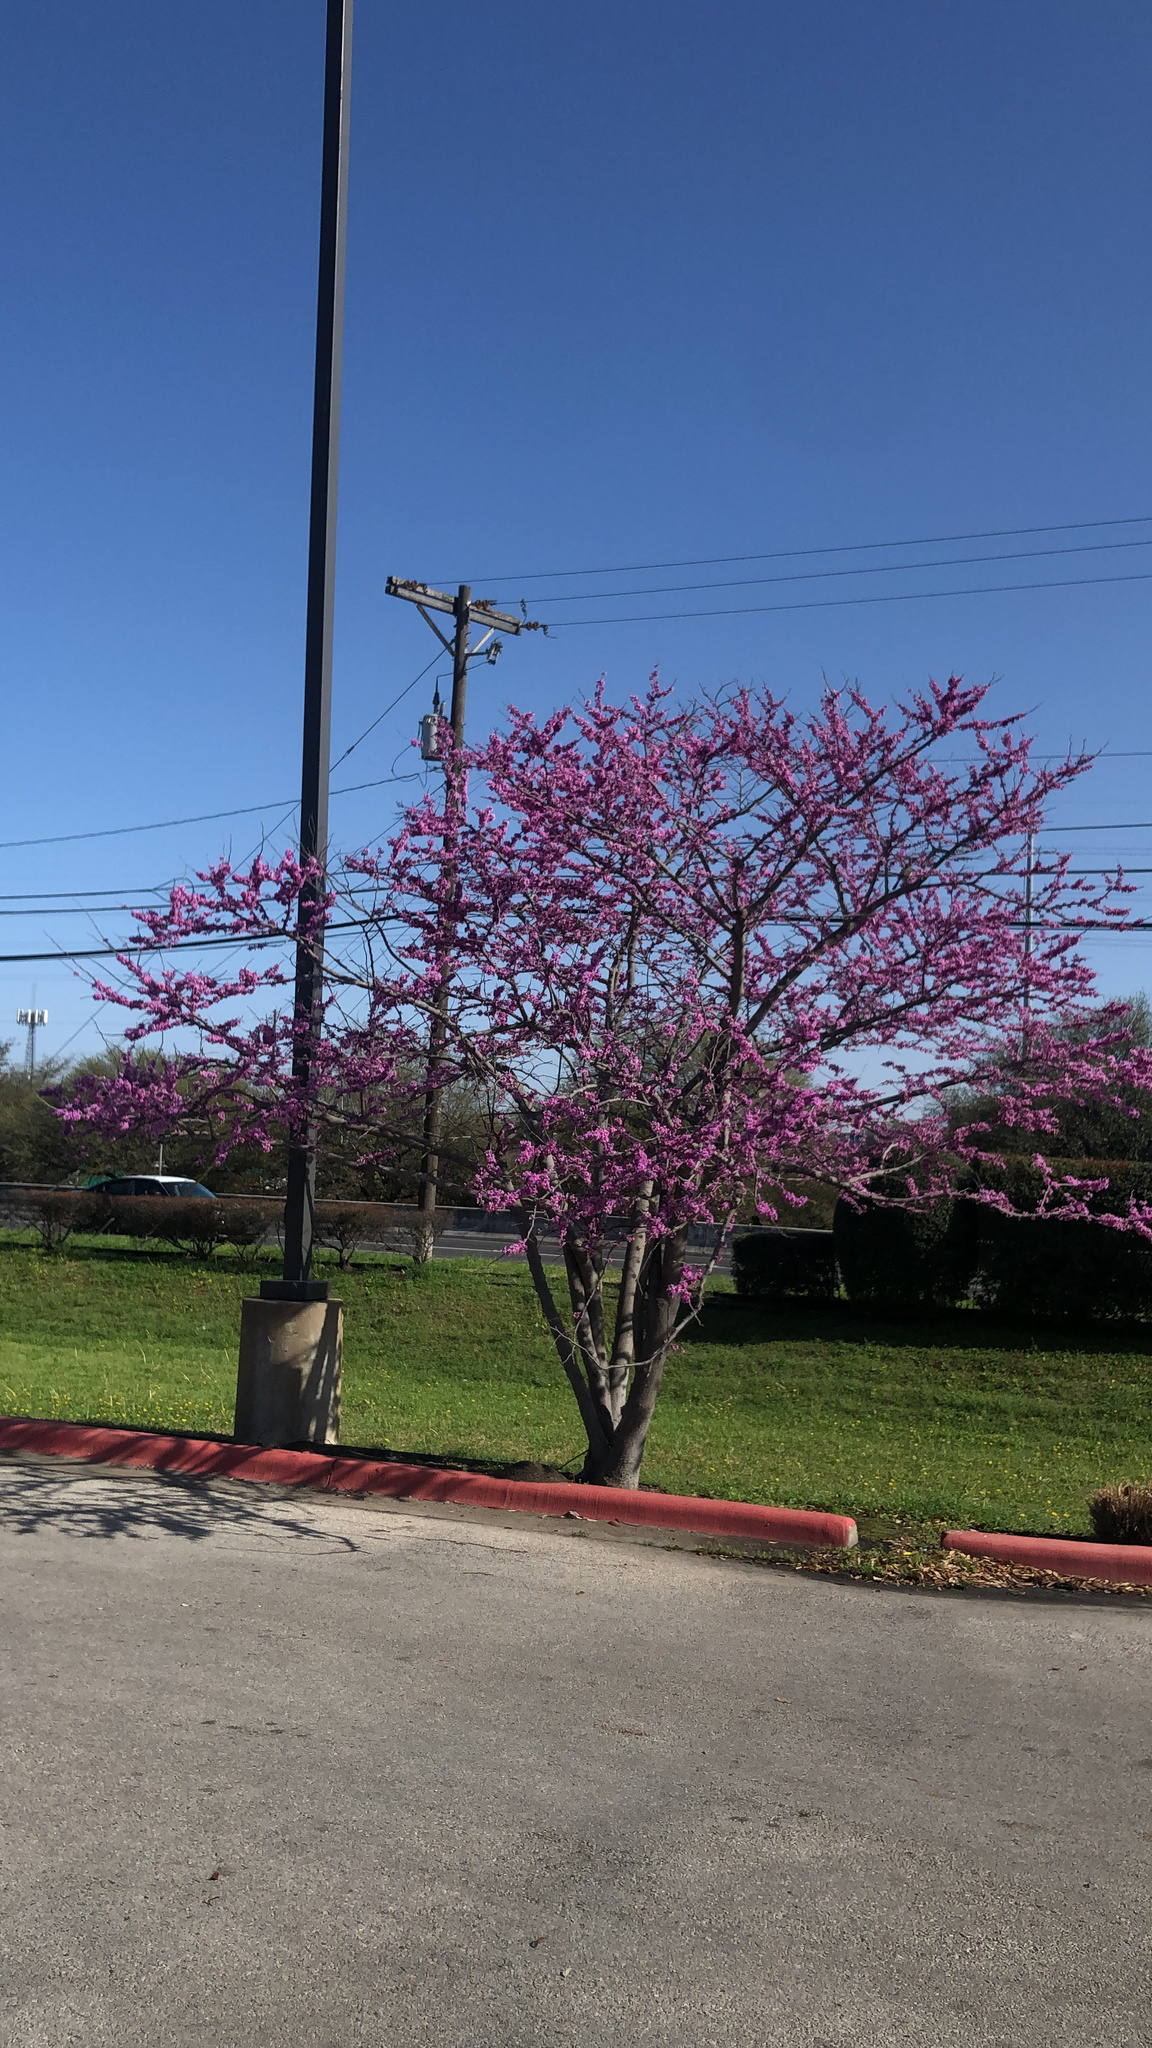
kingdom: Plantae
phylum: Tracheophyta
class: Magnoliopsida
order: Fabales
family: Fabaceae
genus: Cercis
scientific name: Cercis canadensis
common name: Eastern redbud
